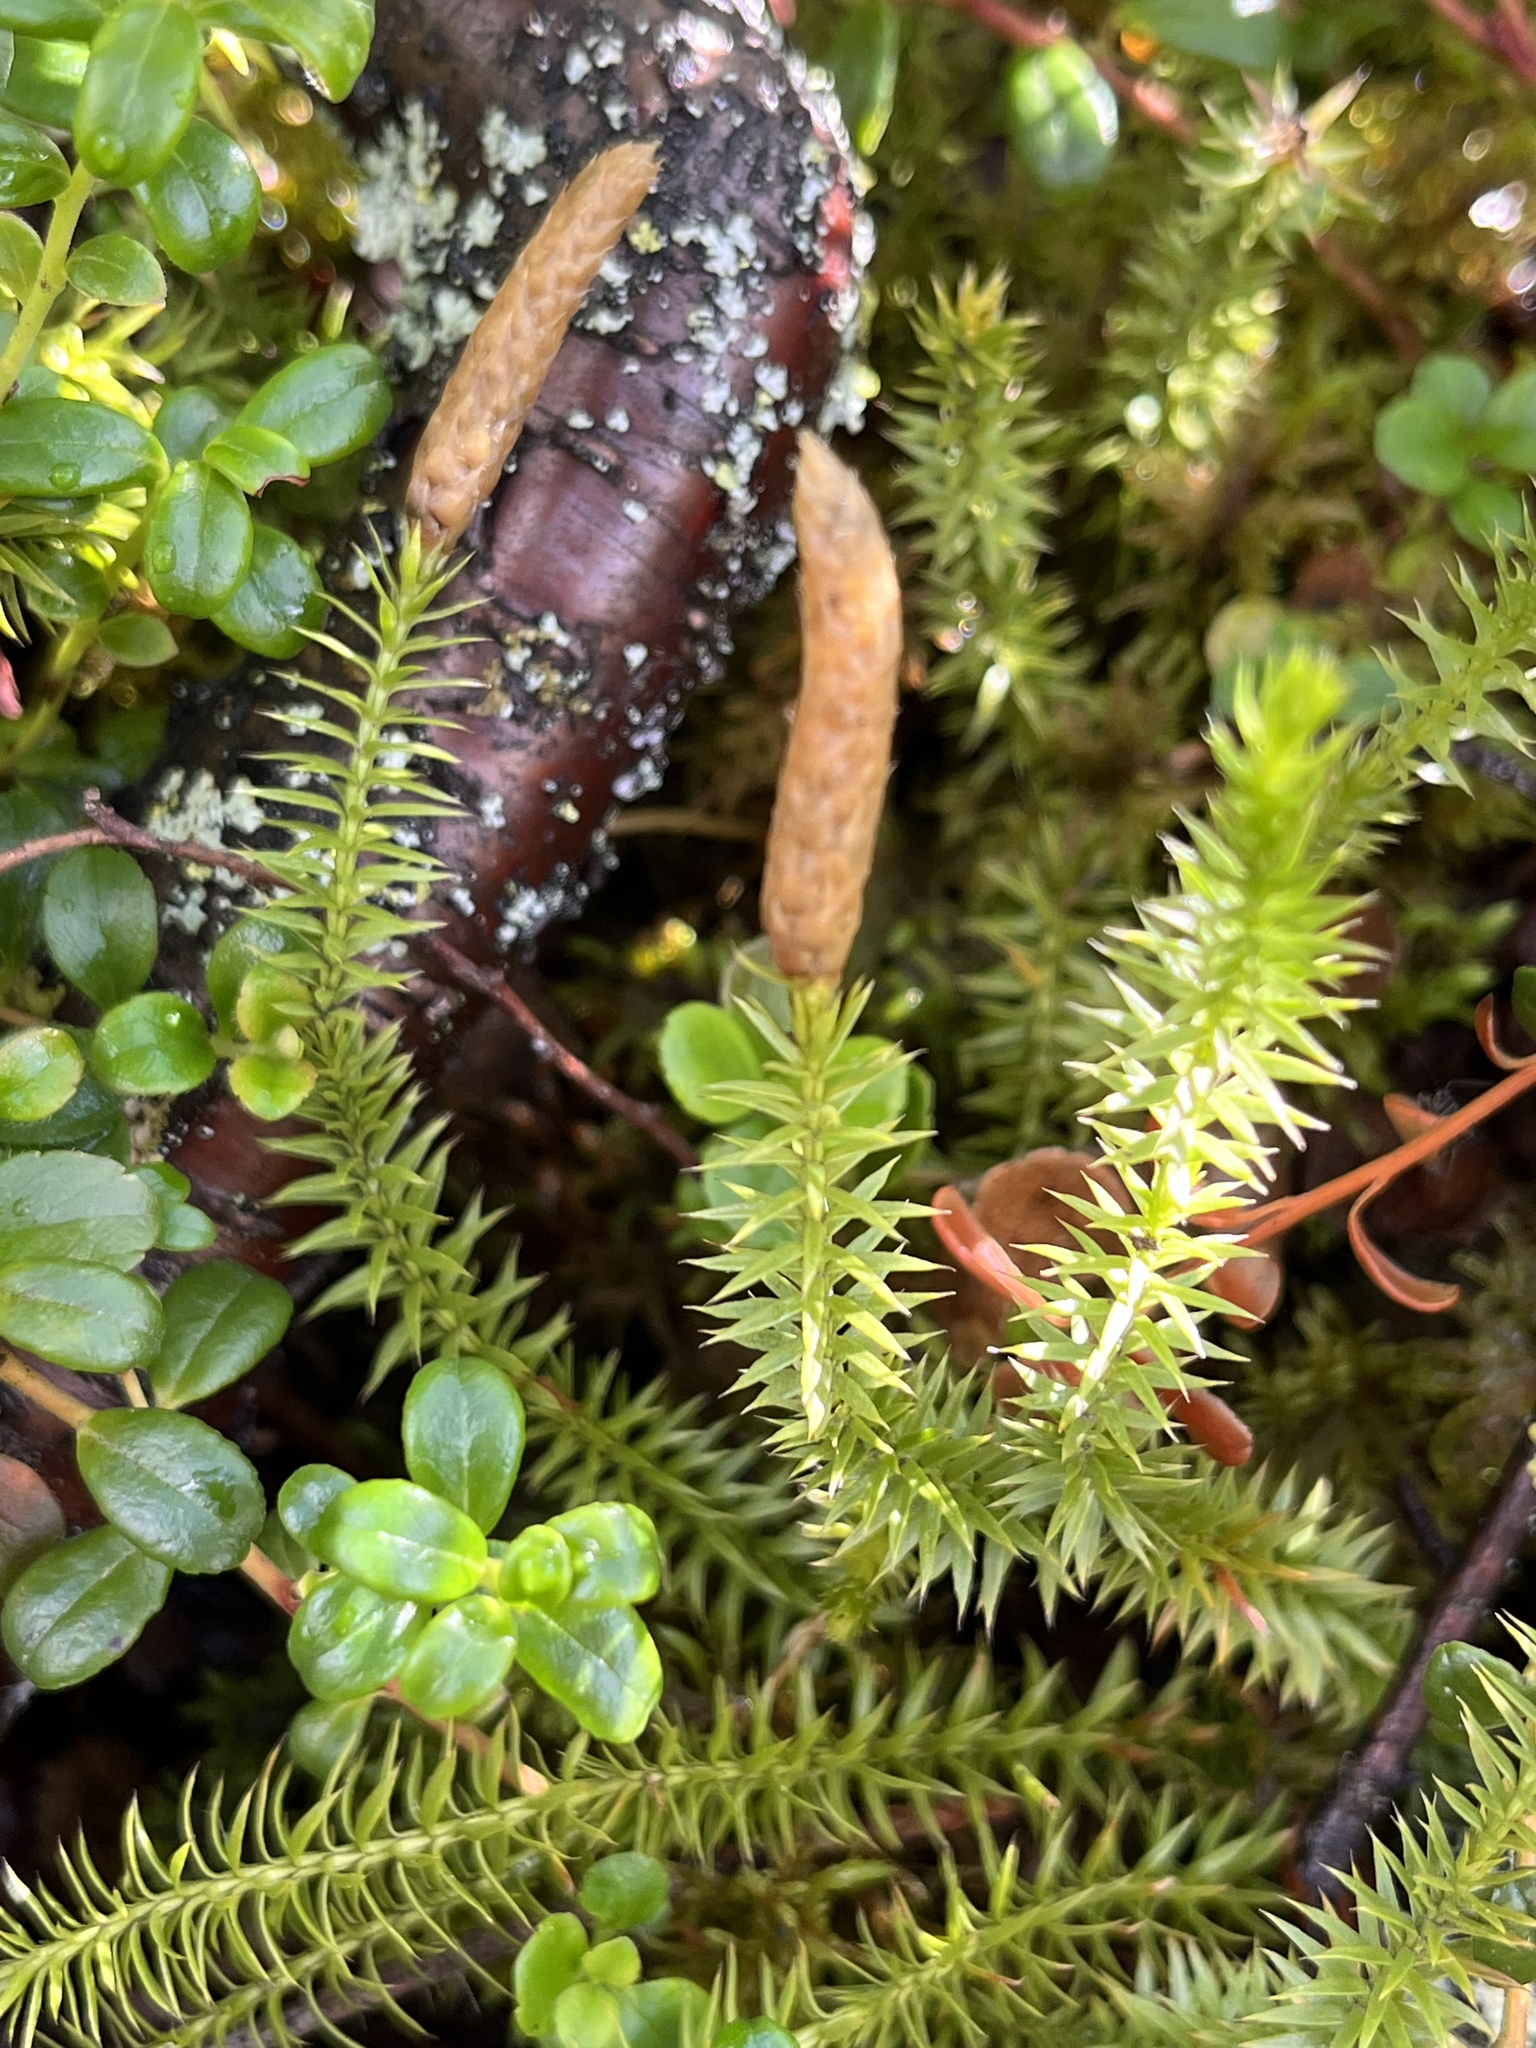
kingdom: Plantae
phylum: Tracheophyta
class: Lycopodiopsida
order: Lycopodiales
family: Lycopodiaceae
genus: Spinulum
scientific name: Spinulum annotinum
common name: Interrupted club-moss
